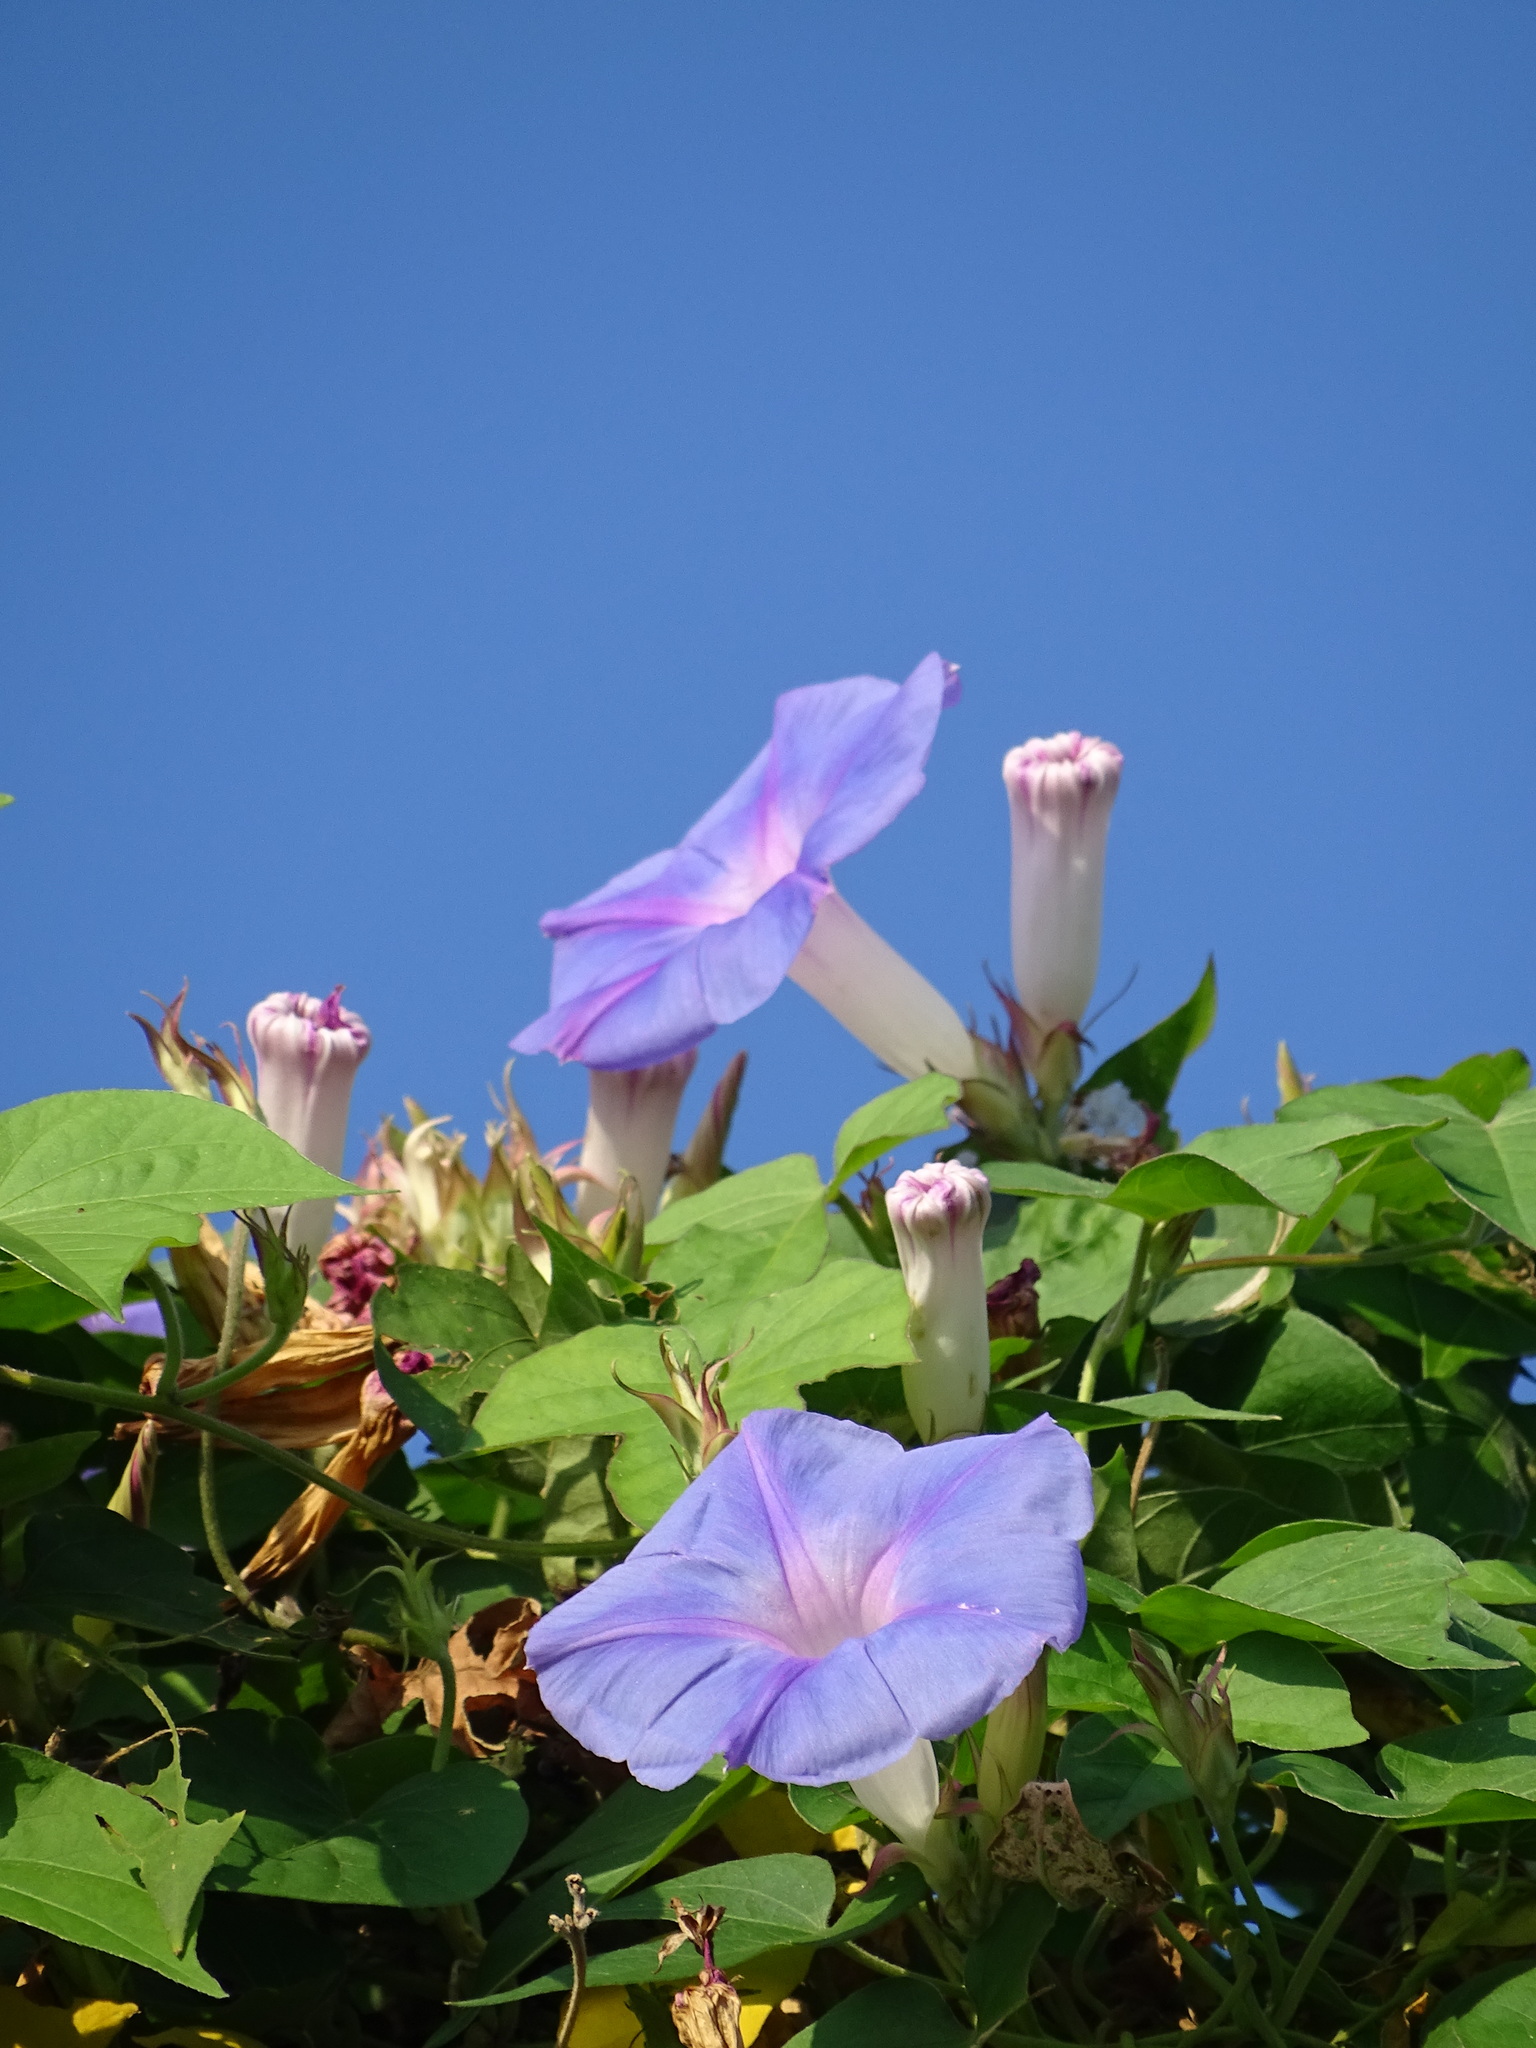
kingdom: Plantae
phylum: Tracheophyta
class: Magnoliopsida
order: Solanales
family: Convolvulaceae
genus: Ipomoea
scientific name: Ipomoea indica
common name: Blue dawnflower
